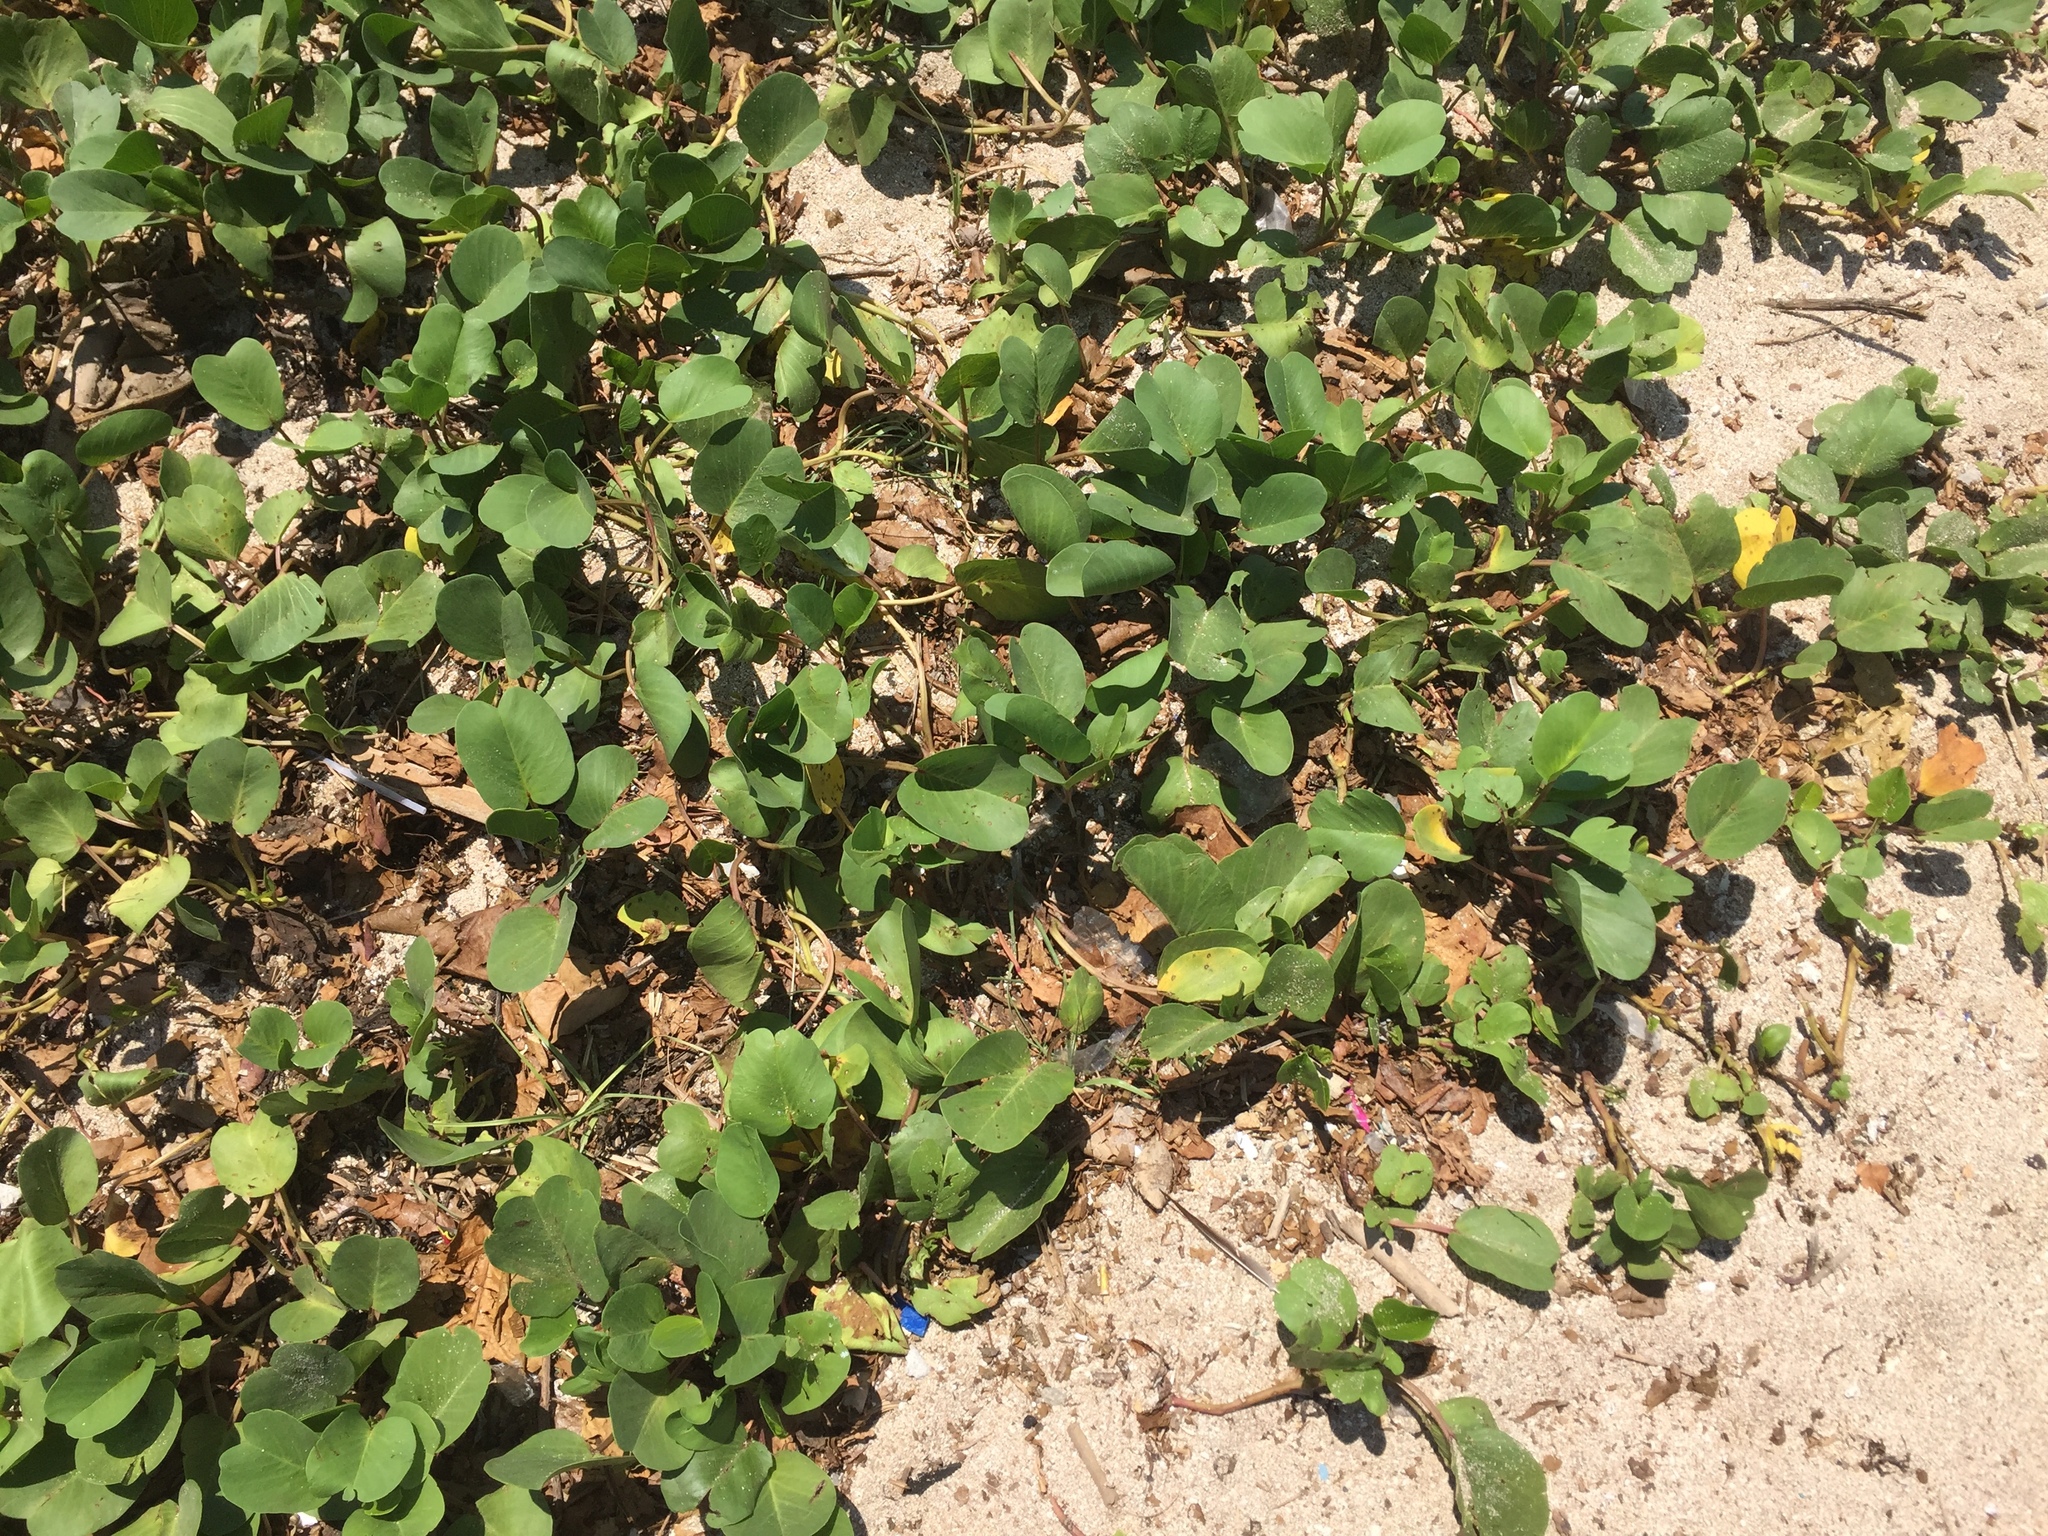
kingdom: Plantae
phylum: Tracheophyta
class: Magnoliopsida
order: Solanales
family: Convolvulaceae
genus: Ipomoea
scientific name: Ipomoea pes-caprae
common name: Beach morning glory
